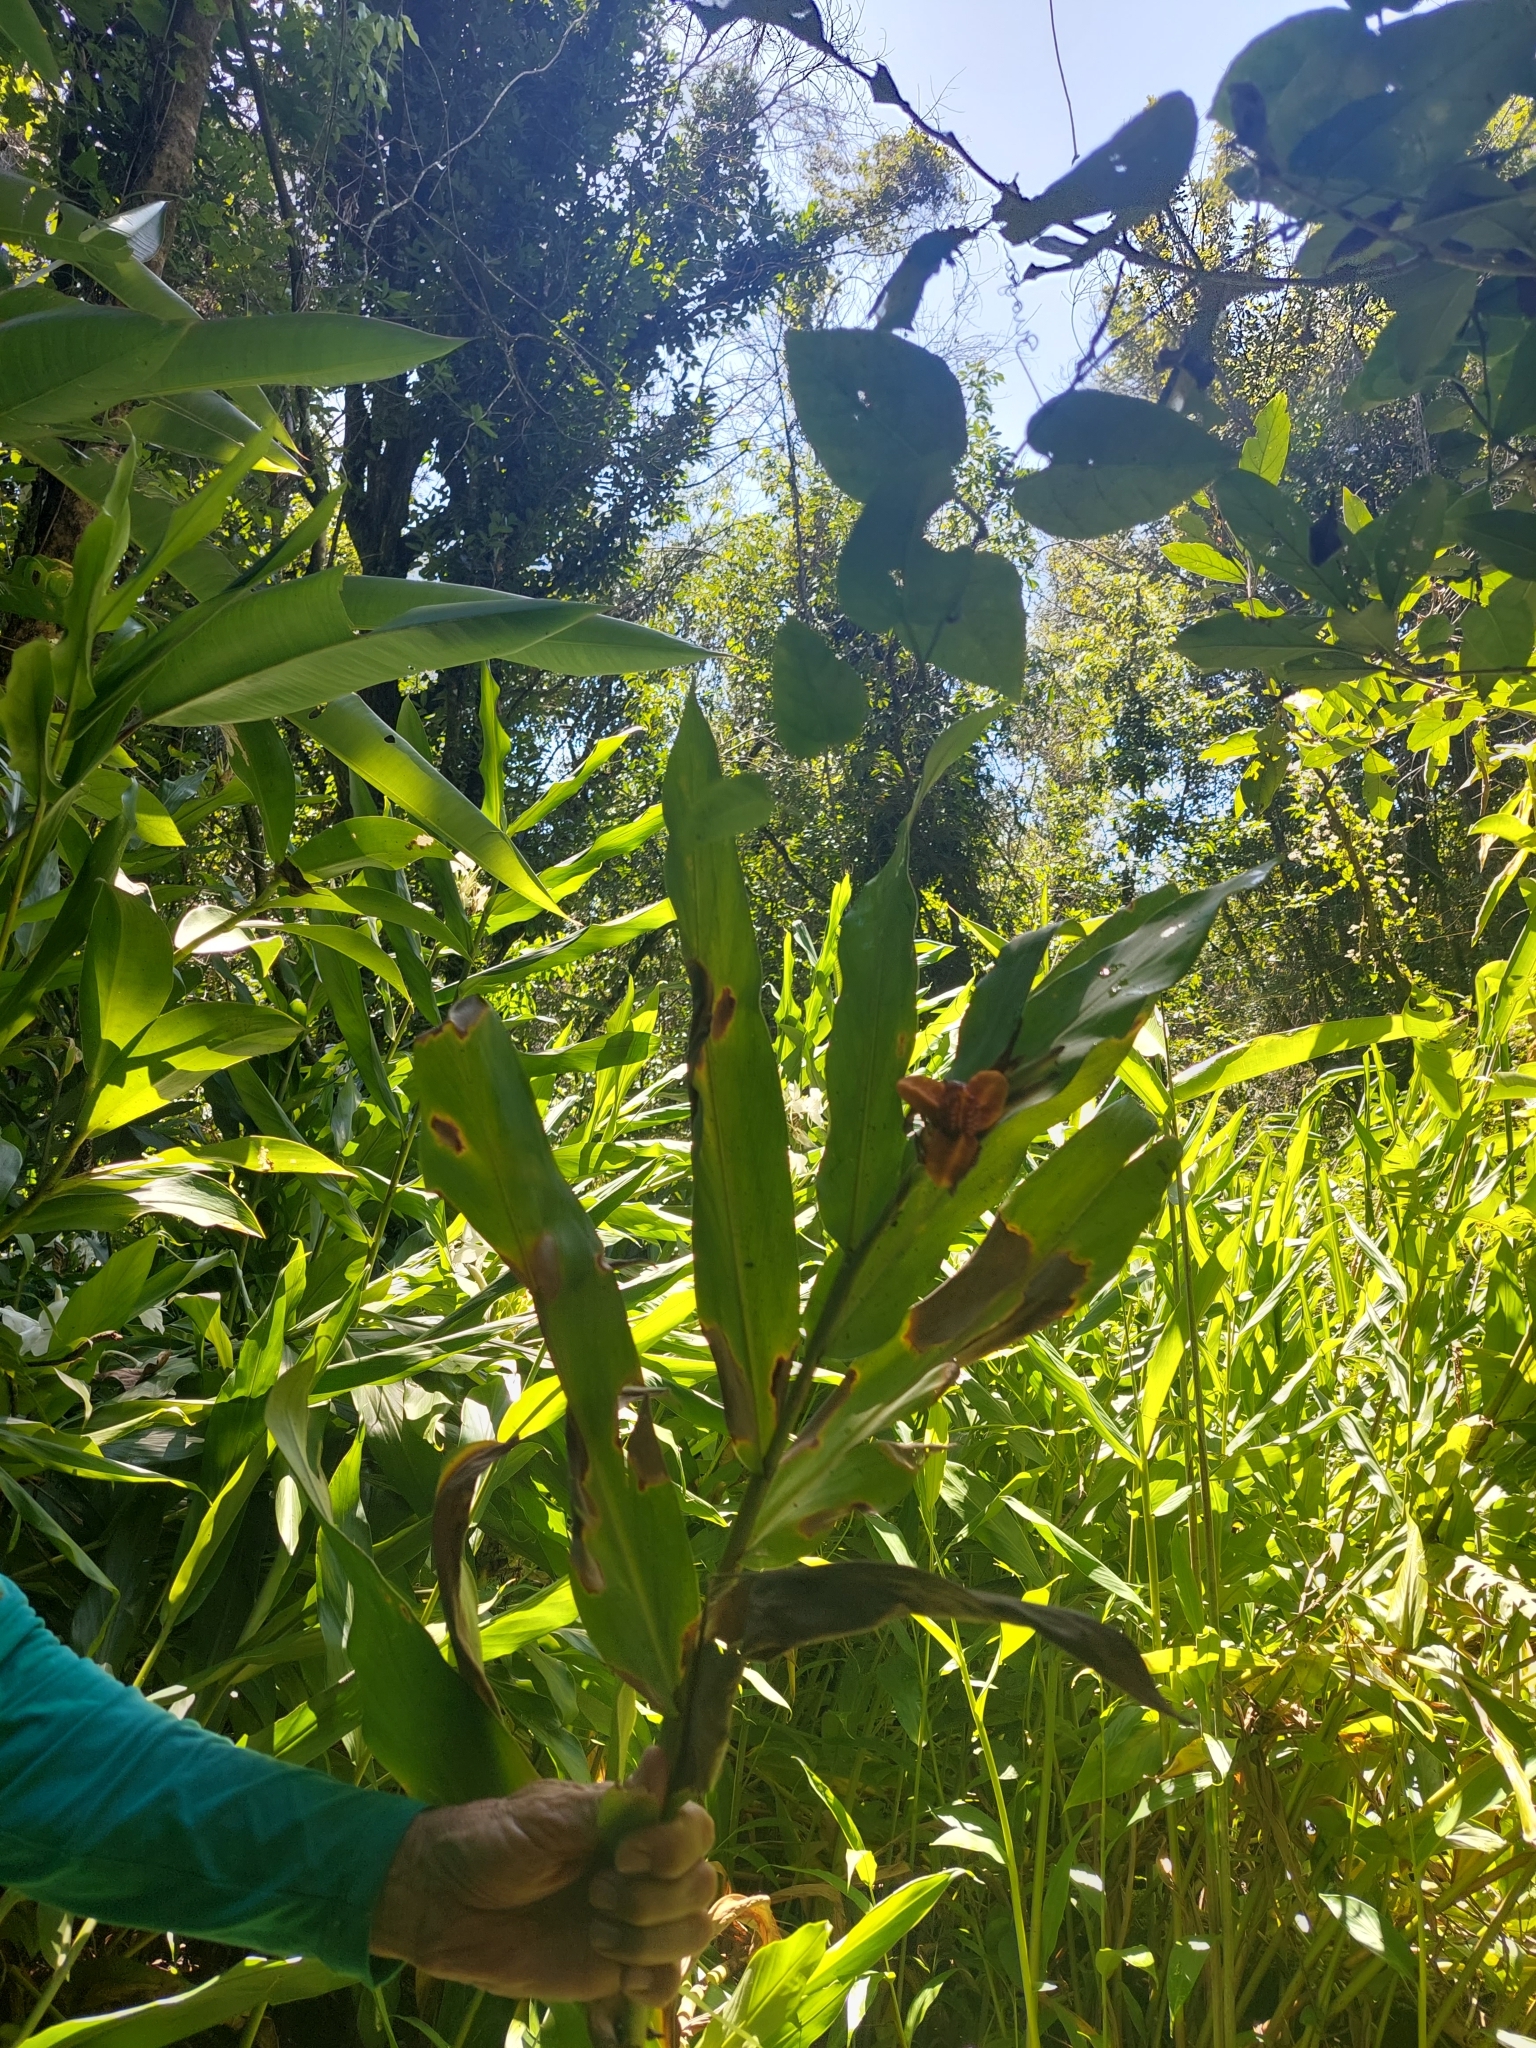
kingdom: Plantae
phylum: Tracheophyta
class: Liliopsida
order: Zingiberales
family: Zingiberaceae
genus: Hedychium
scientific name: Hedychium coronarium
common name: White garland-lily
